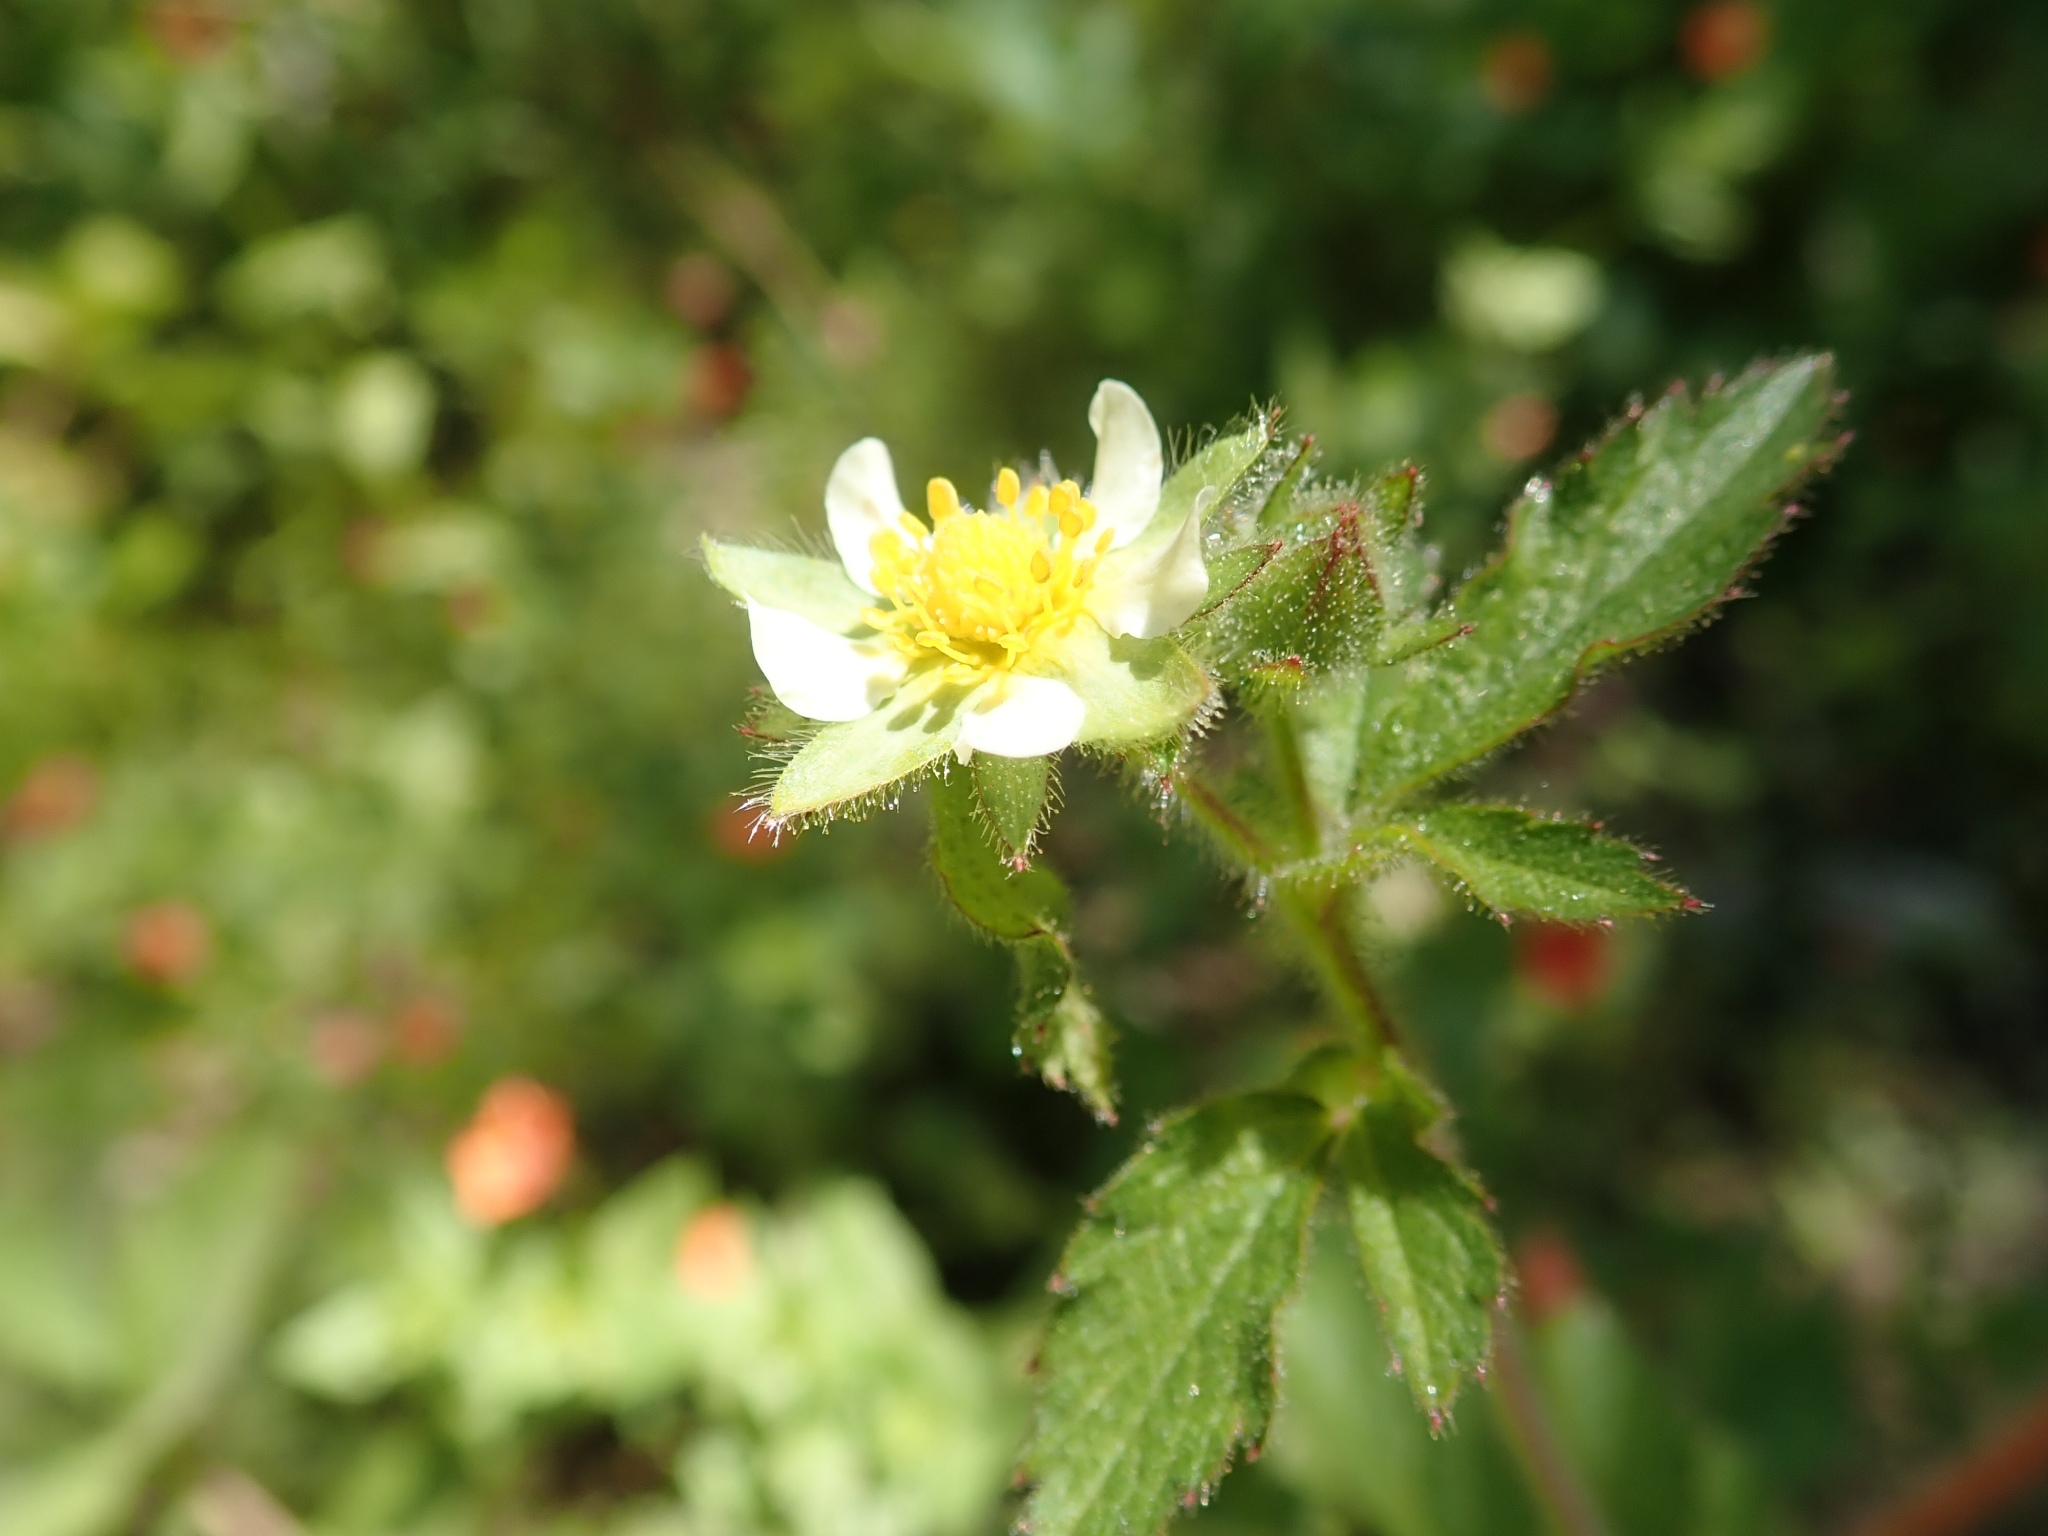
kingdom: Plantae
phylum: Tracheophyta
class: Magnoliopsida
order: Rosales
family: Rosaceae
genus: Drymocallis
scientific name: Drymocallis glandulosa
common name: Sticky cinquefoil
